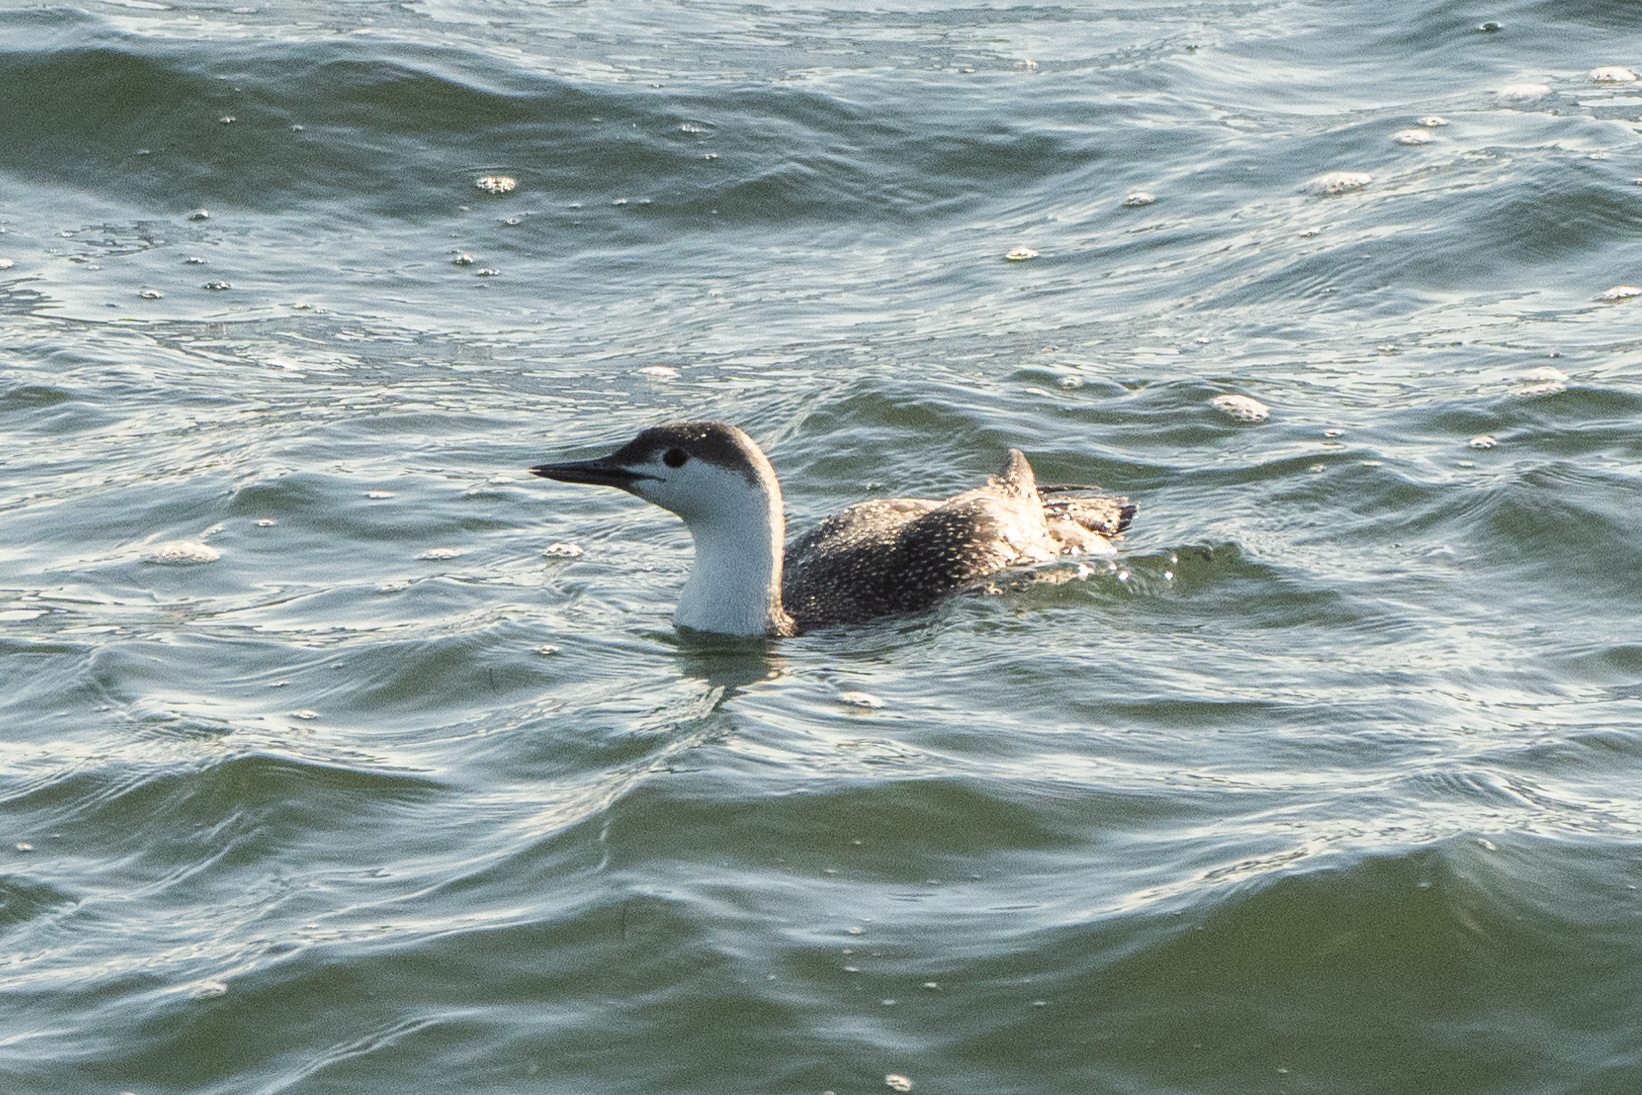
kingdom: Animalia
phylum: Chordata
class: Aves
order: Gaviiformes
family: Gaviidae
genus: Gavia
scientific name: Gavia stellata
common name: Red-throated loon
